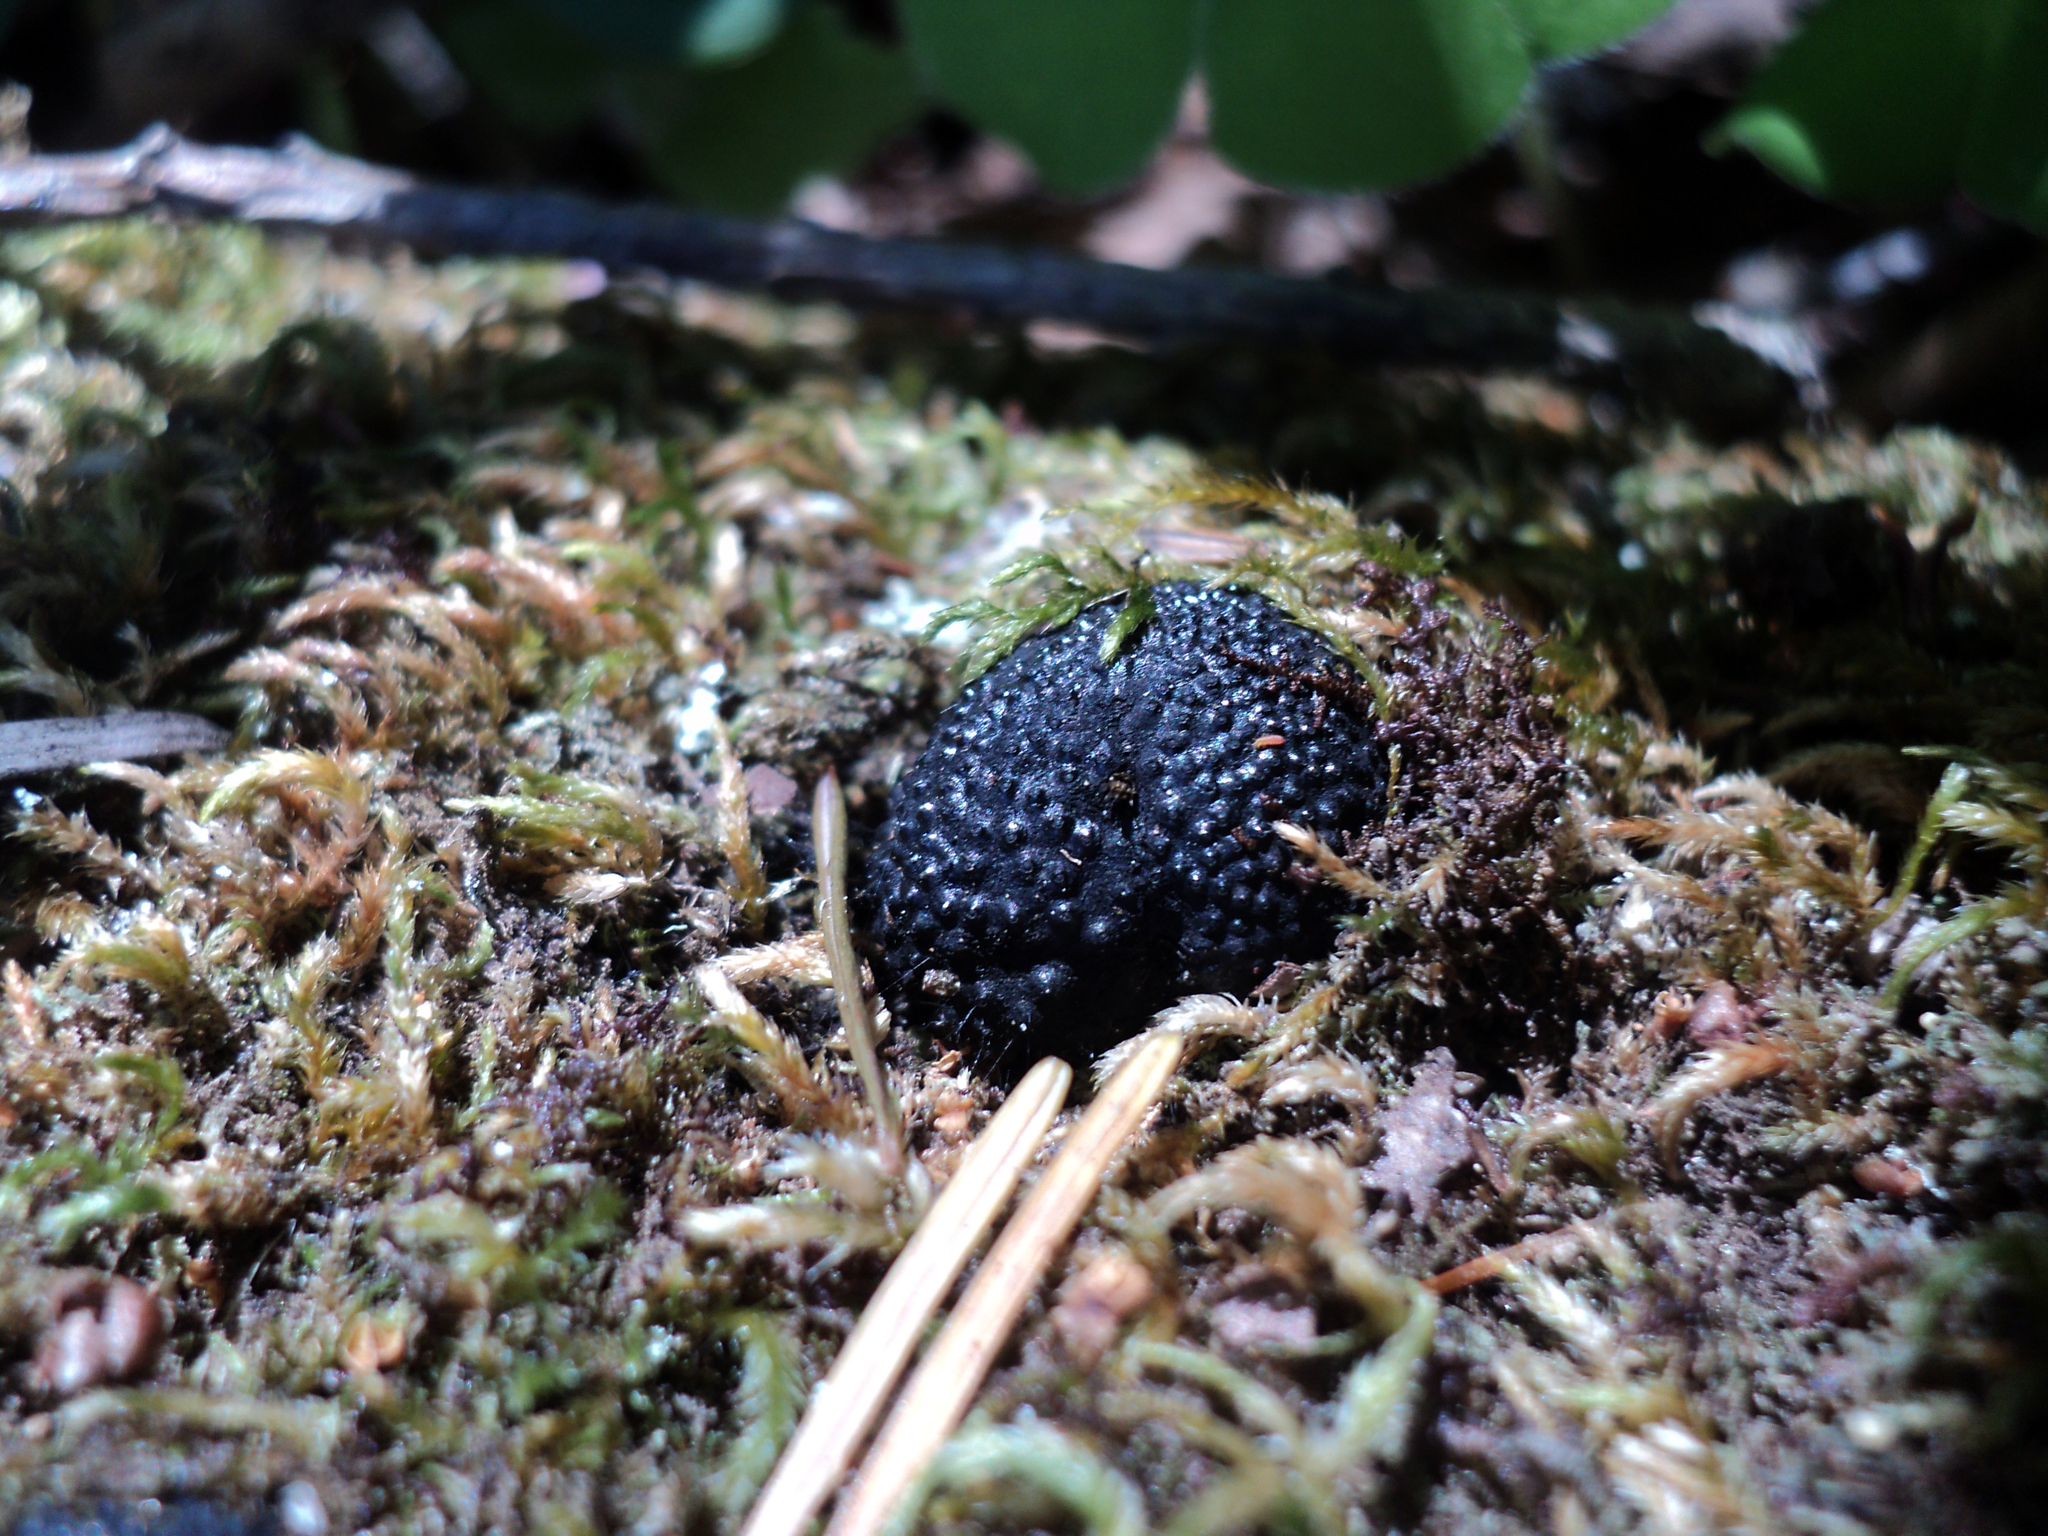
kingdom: Fungi
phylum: Ascomycota
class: Sordariomycetes
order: Xylariales
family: Hypoxylaceae
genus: Annulohypoxylon
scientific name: Annulohypoxylon thouarsianum
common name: Cramp balls
